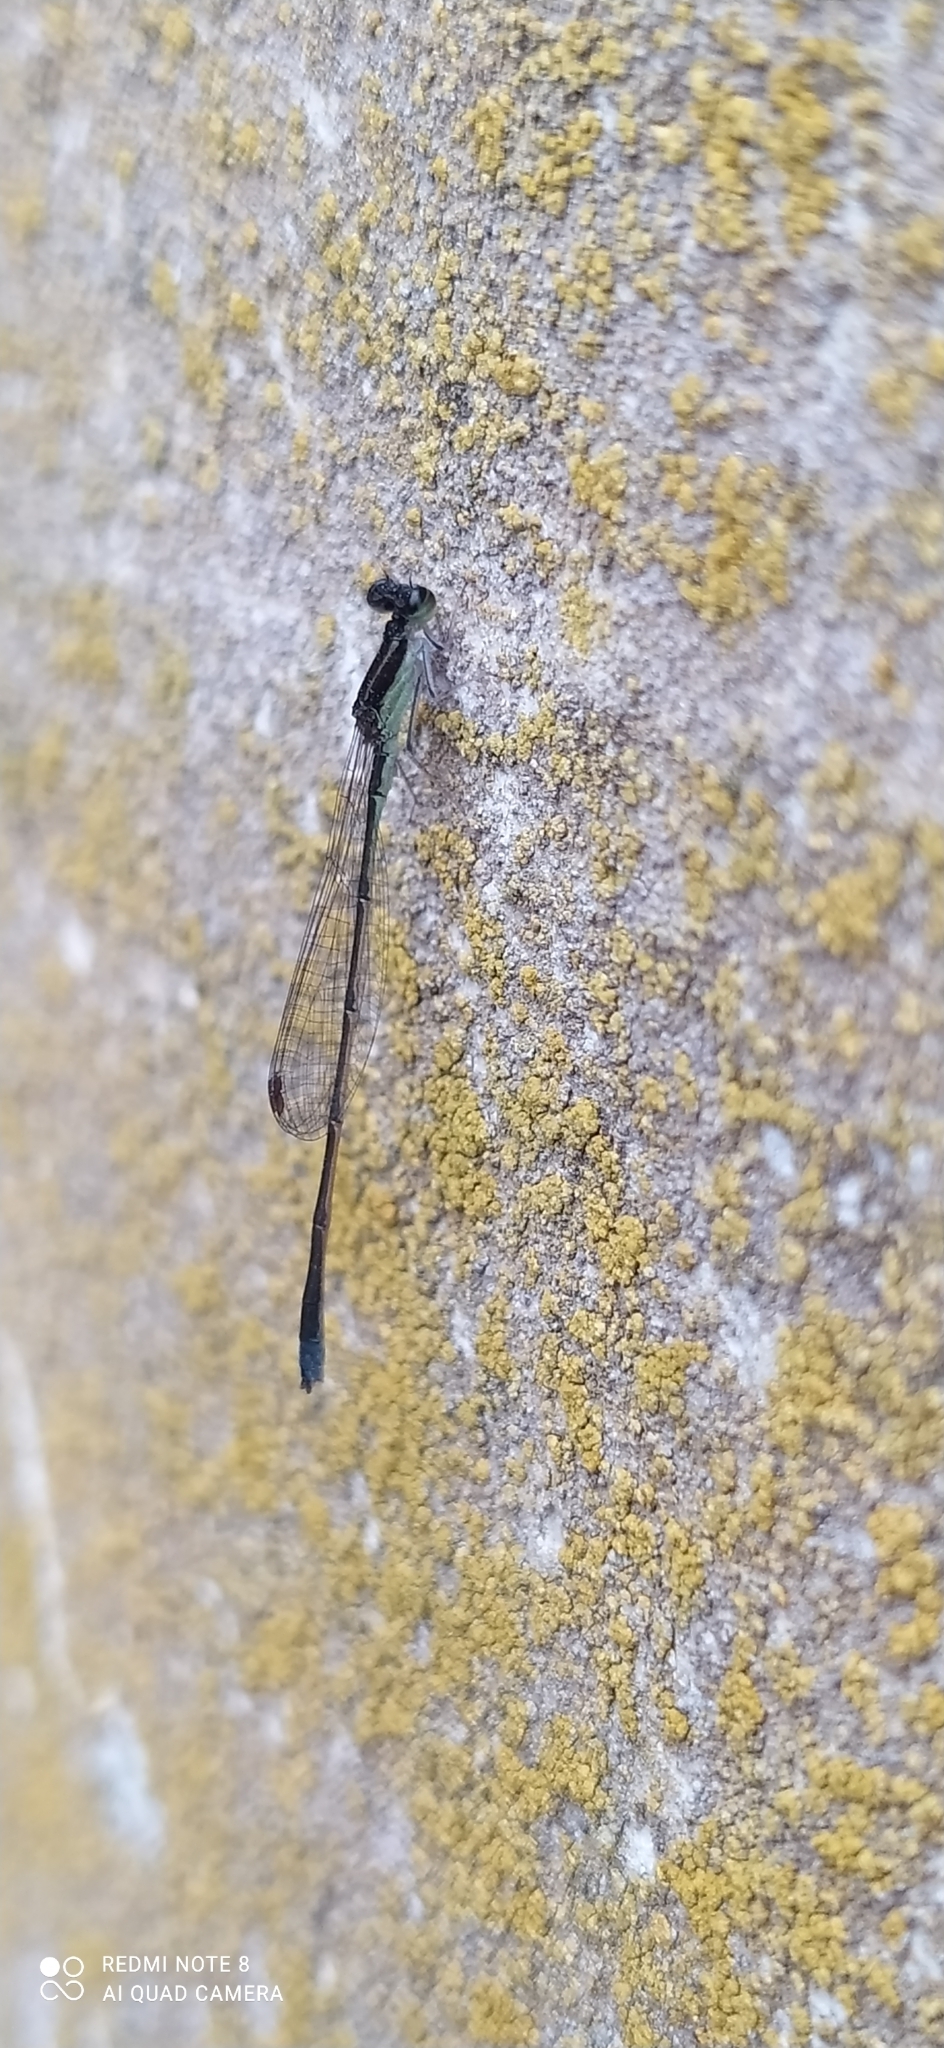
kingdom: Animalia
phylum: Arthropoda
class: Insecta
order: Odonata
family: Coenagrionidae
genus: Argentagrion
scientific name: Argentagrion ambiguum
